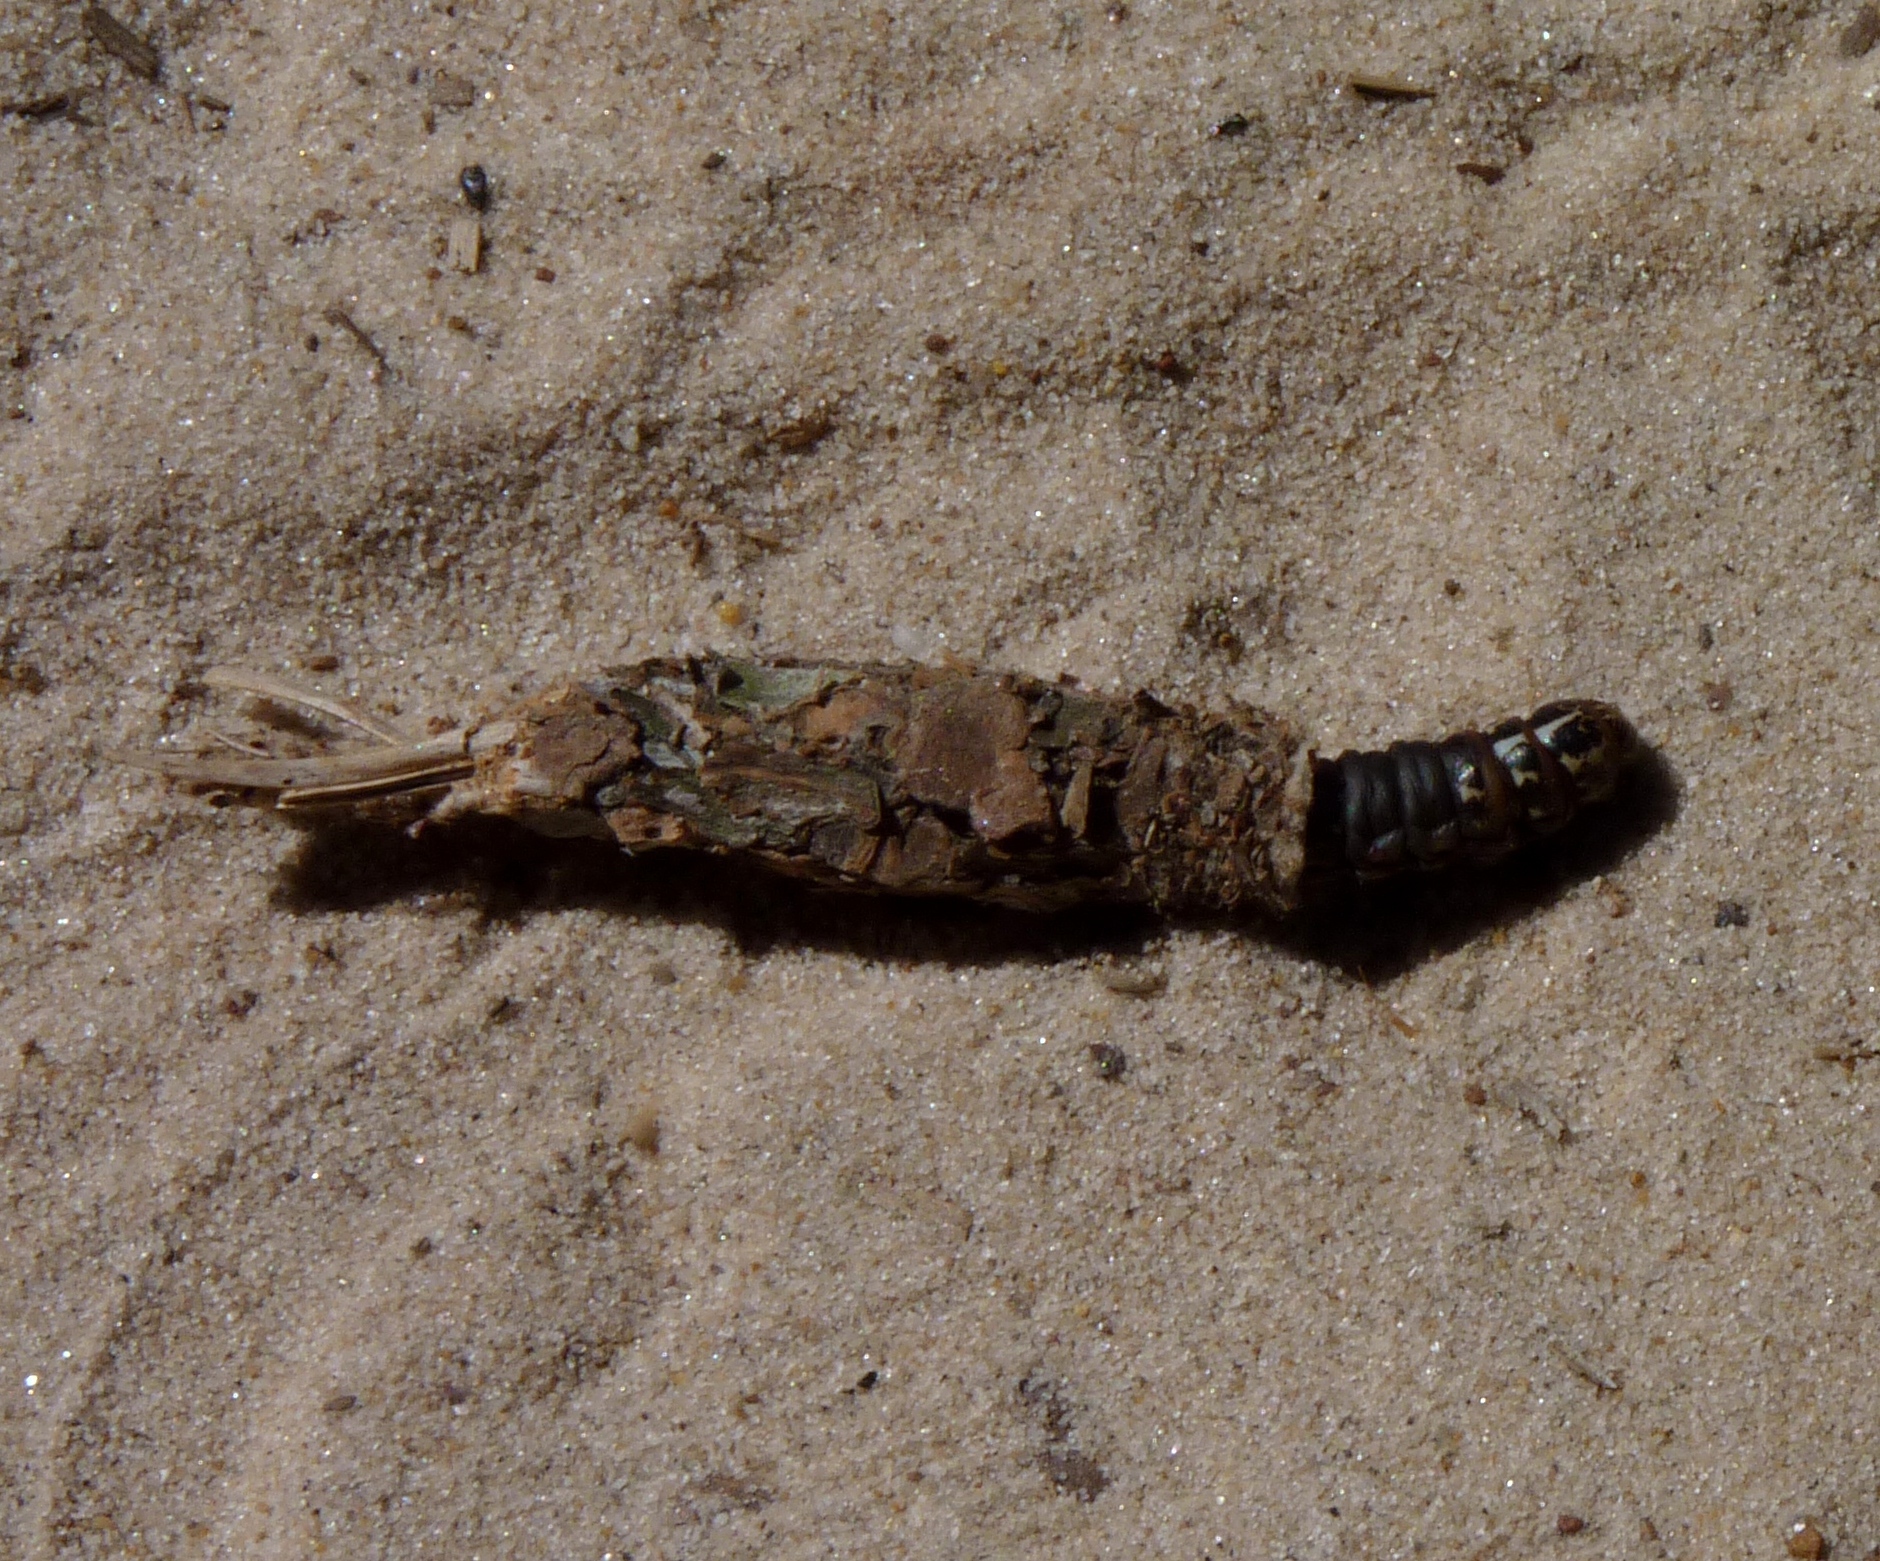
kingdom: Animalia
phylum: Arthropoda
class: Insecta
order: Lepidoptera
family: Psychidae
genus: Thyridopteryx
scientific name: Thyridopteryx ephemeraeformis
